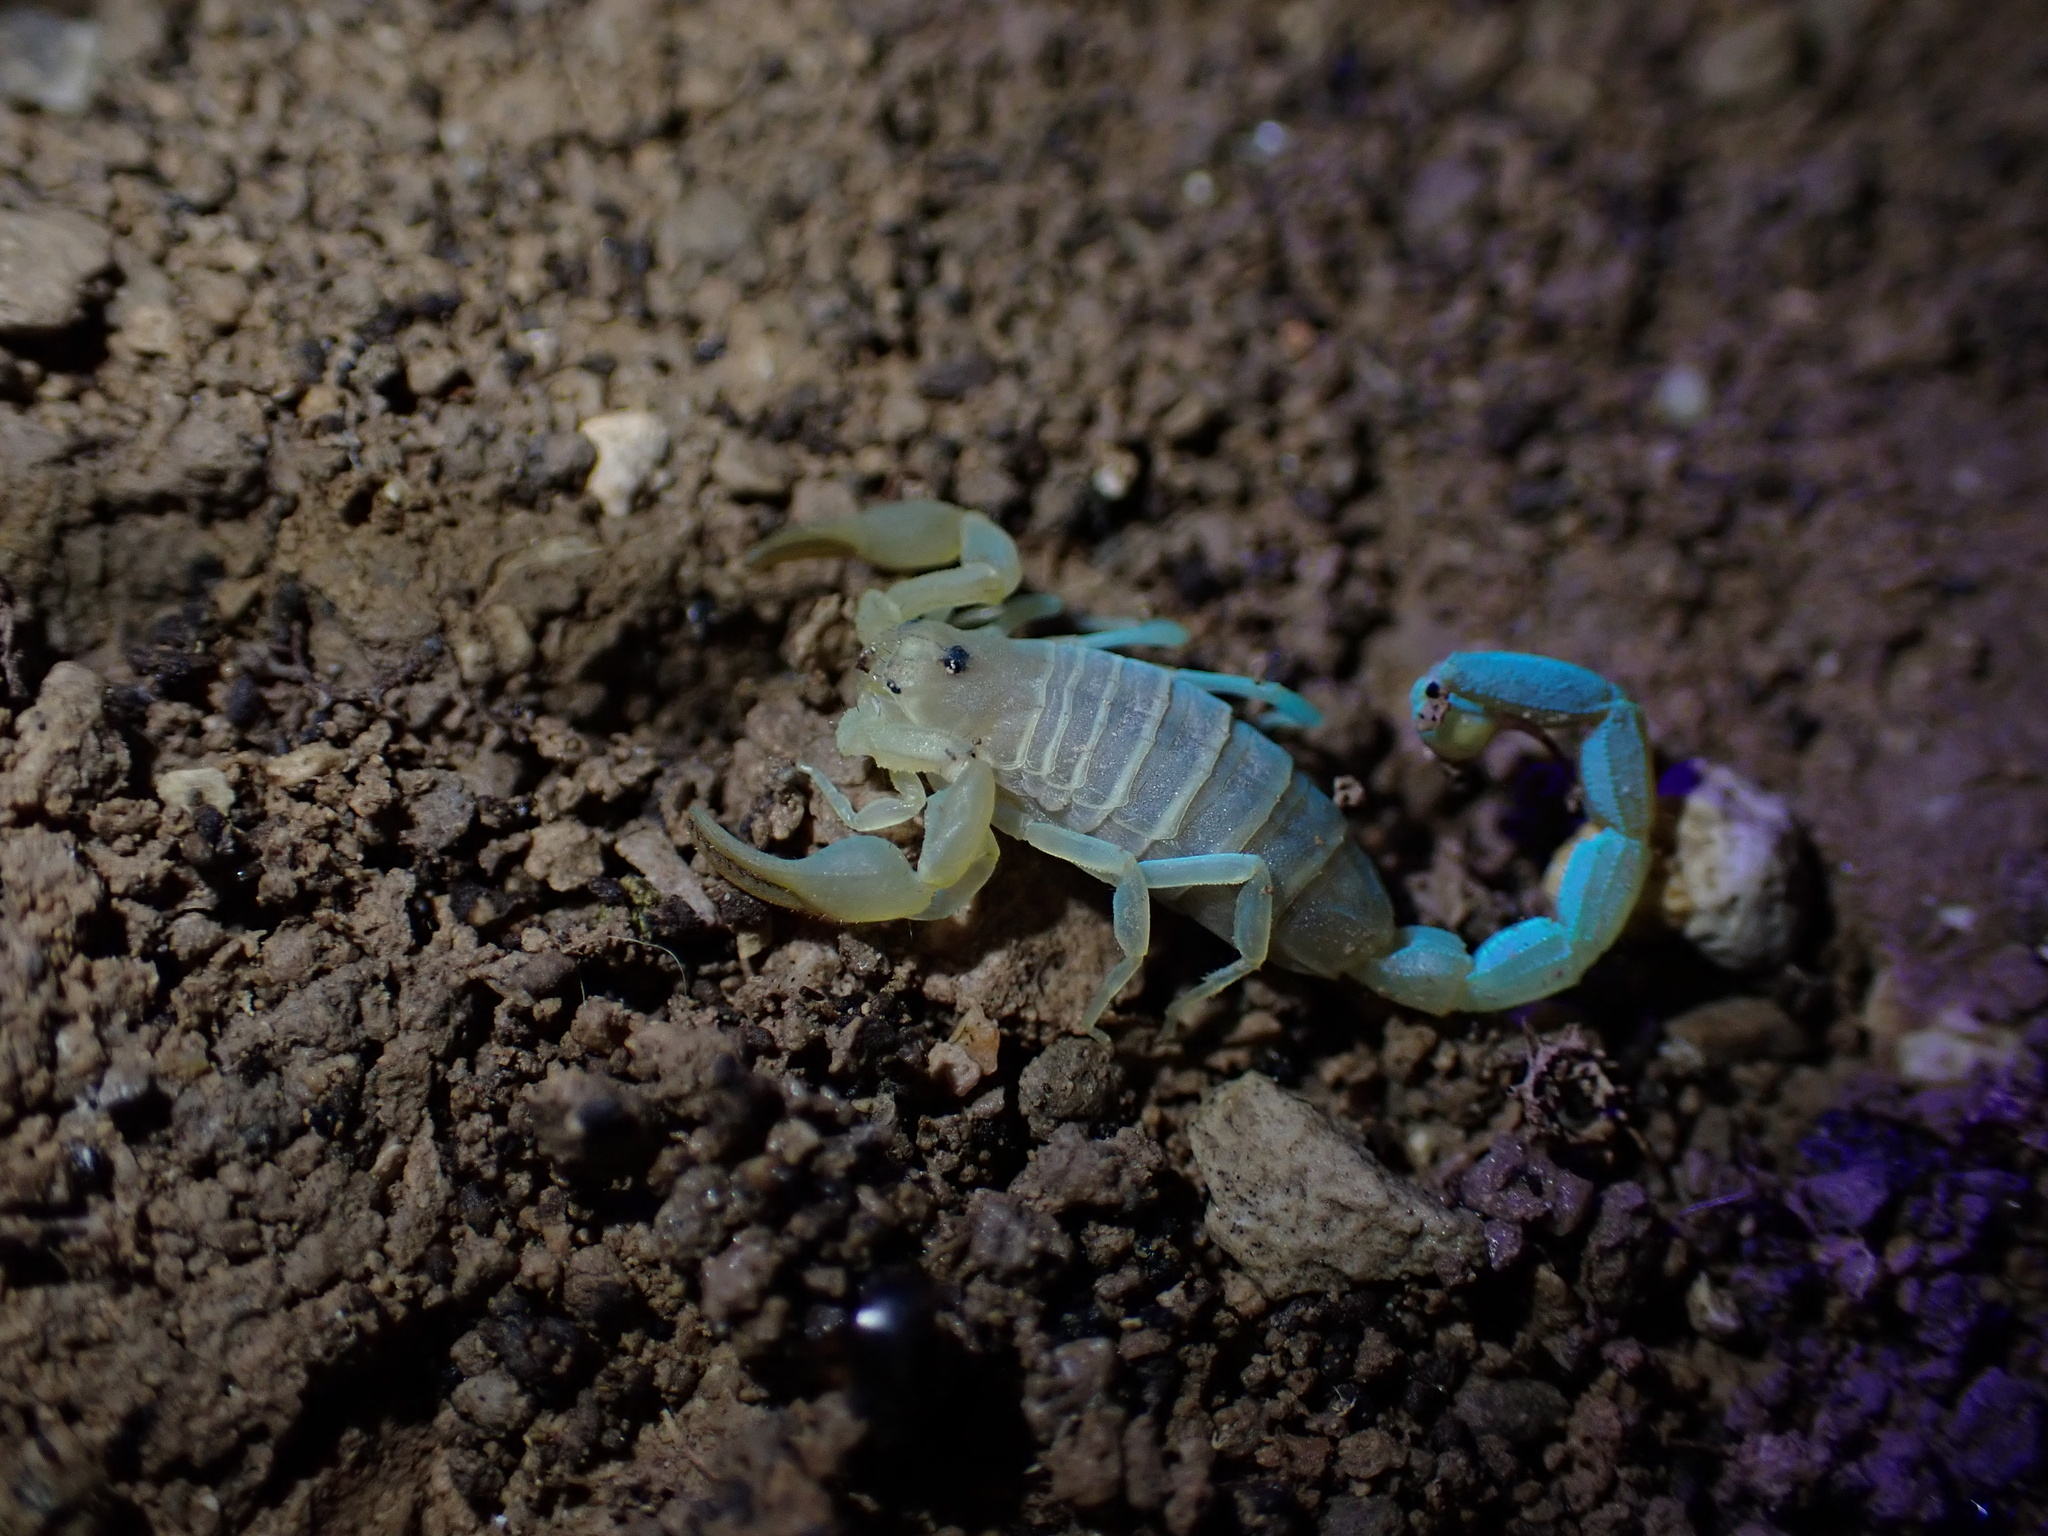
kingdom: Animalia
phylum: Arthropoda
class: Arachnida
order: Scorpiones
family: Buthidae
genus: Razianus
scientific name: Razianus zarudnyi
